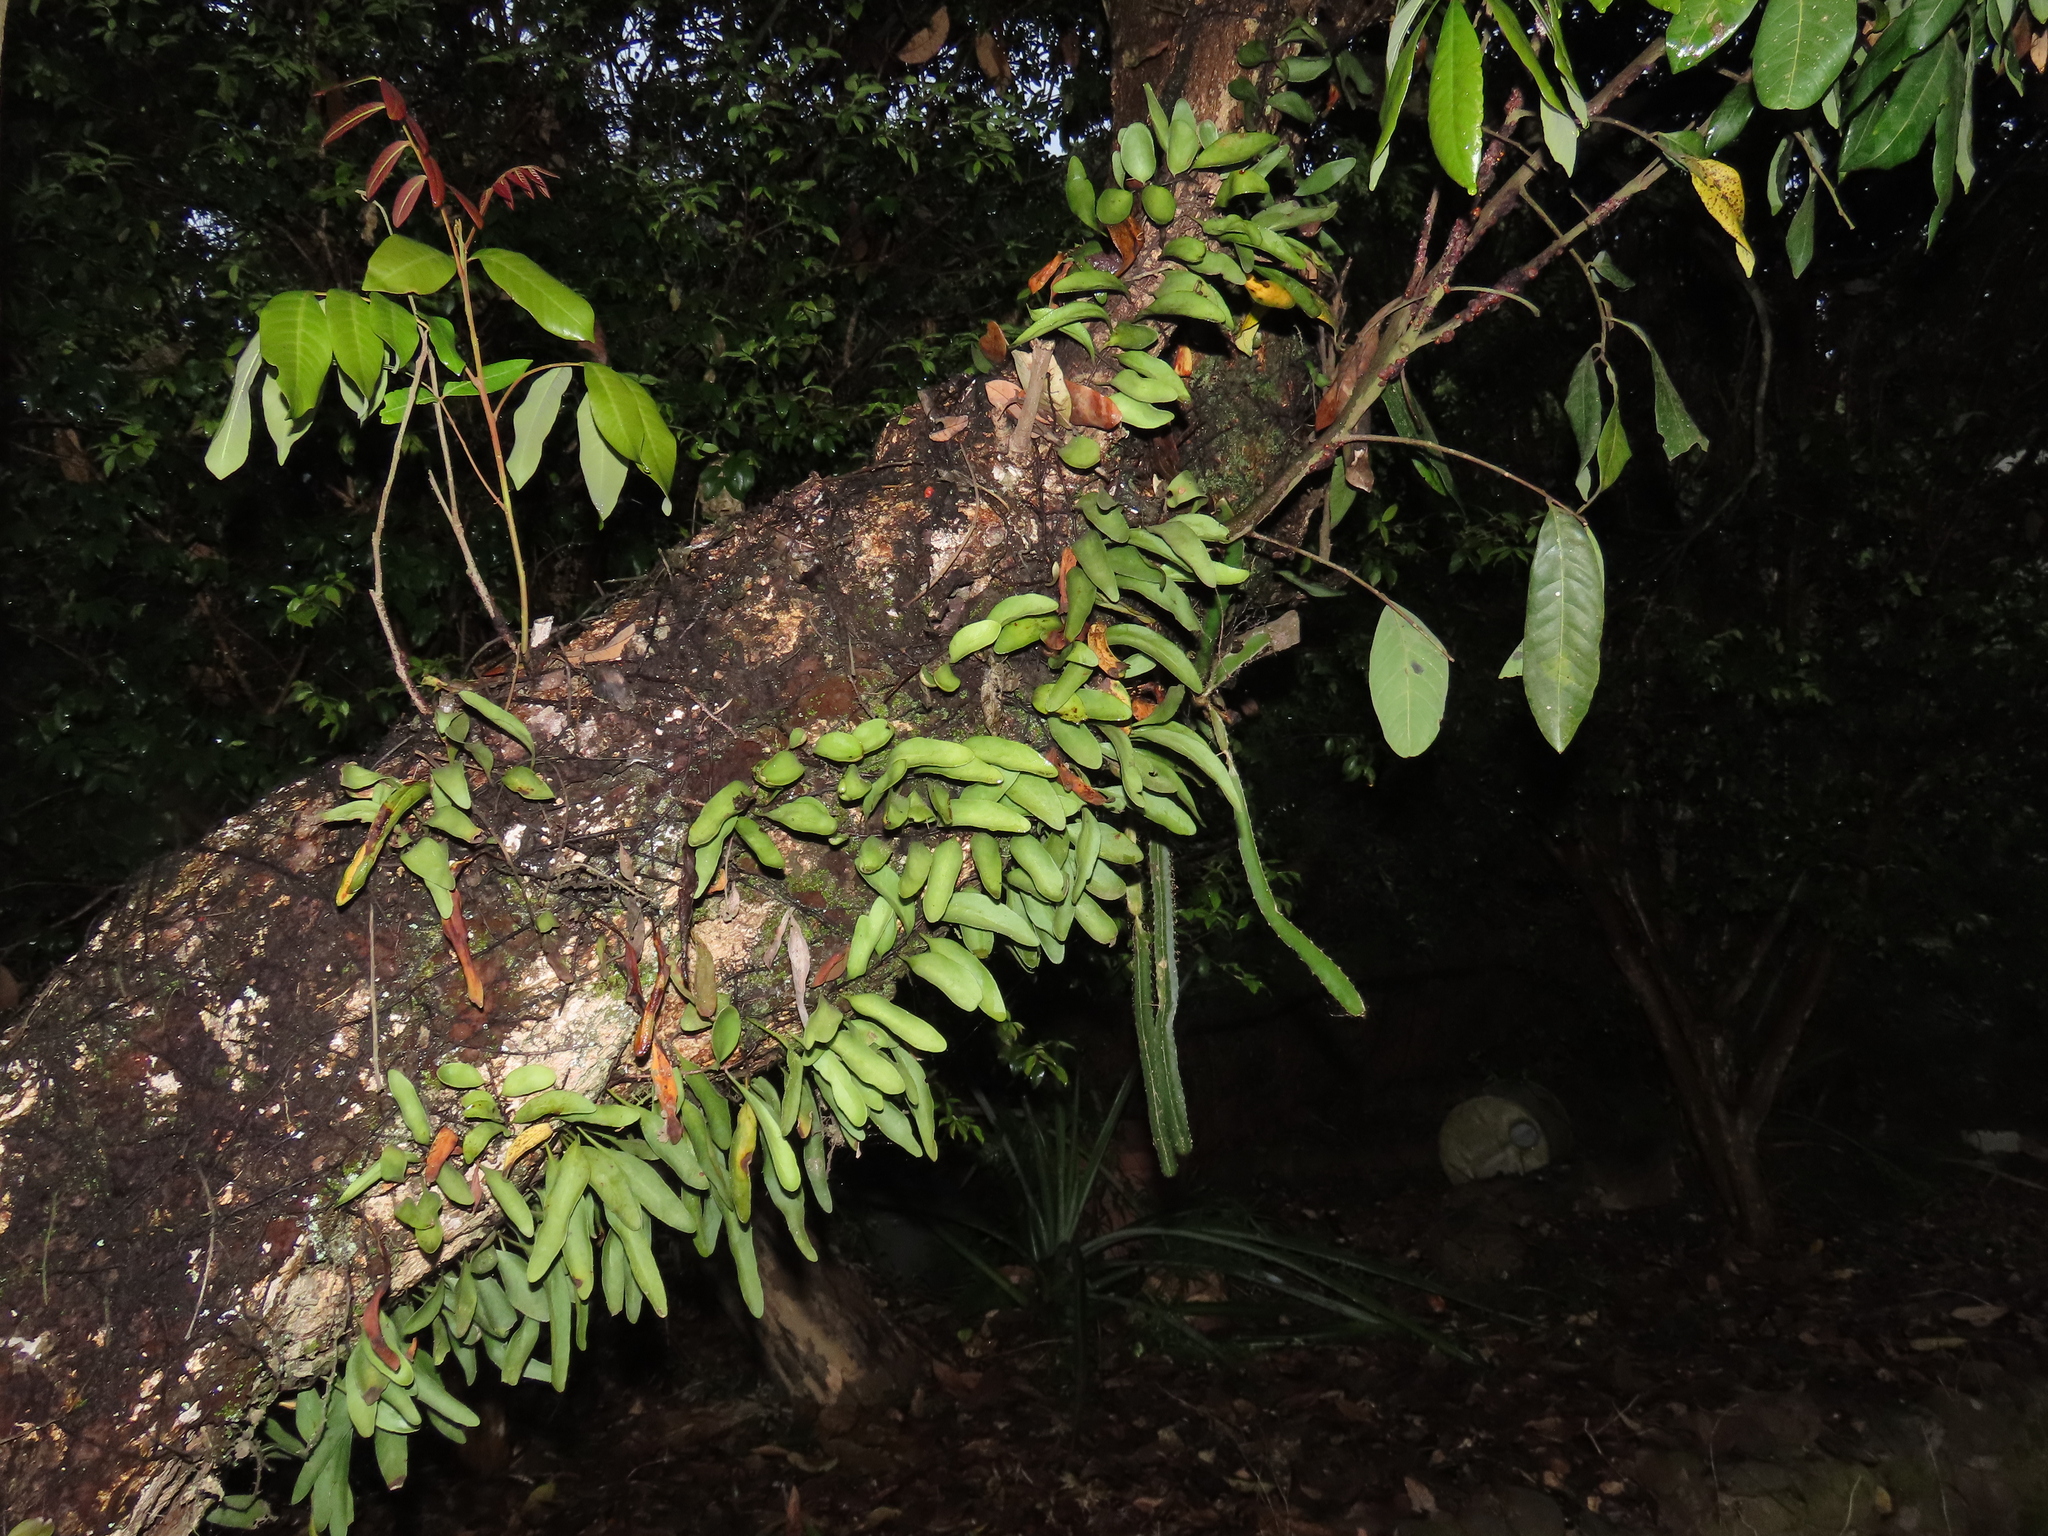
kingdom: Plantae
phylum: Tracheophyta
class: Polypodiopsida
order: Polypodiales
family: Polypodiaceae
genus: Pyrrosia
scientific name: Pyrrosia lanceolata
